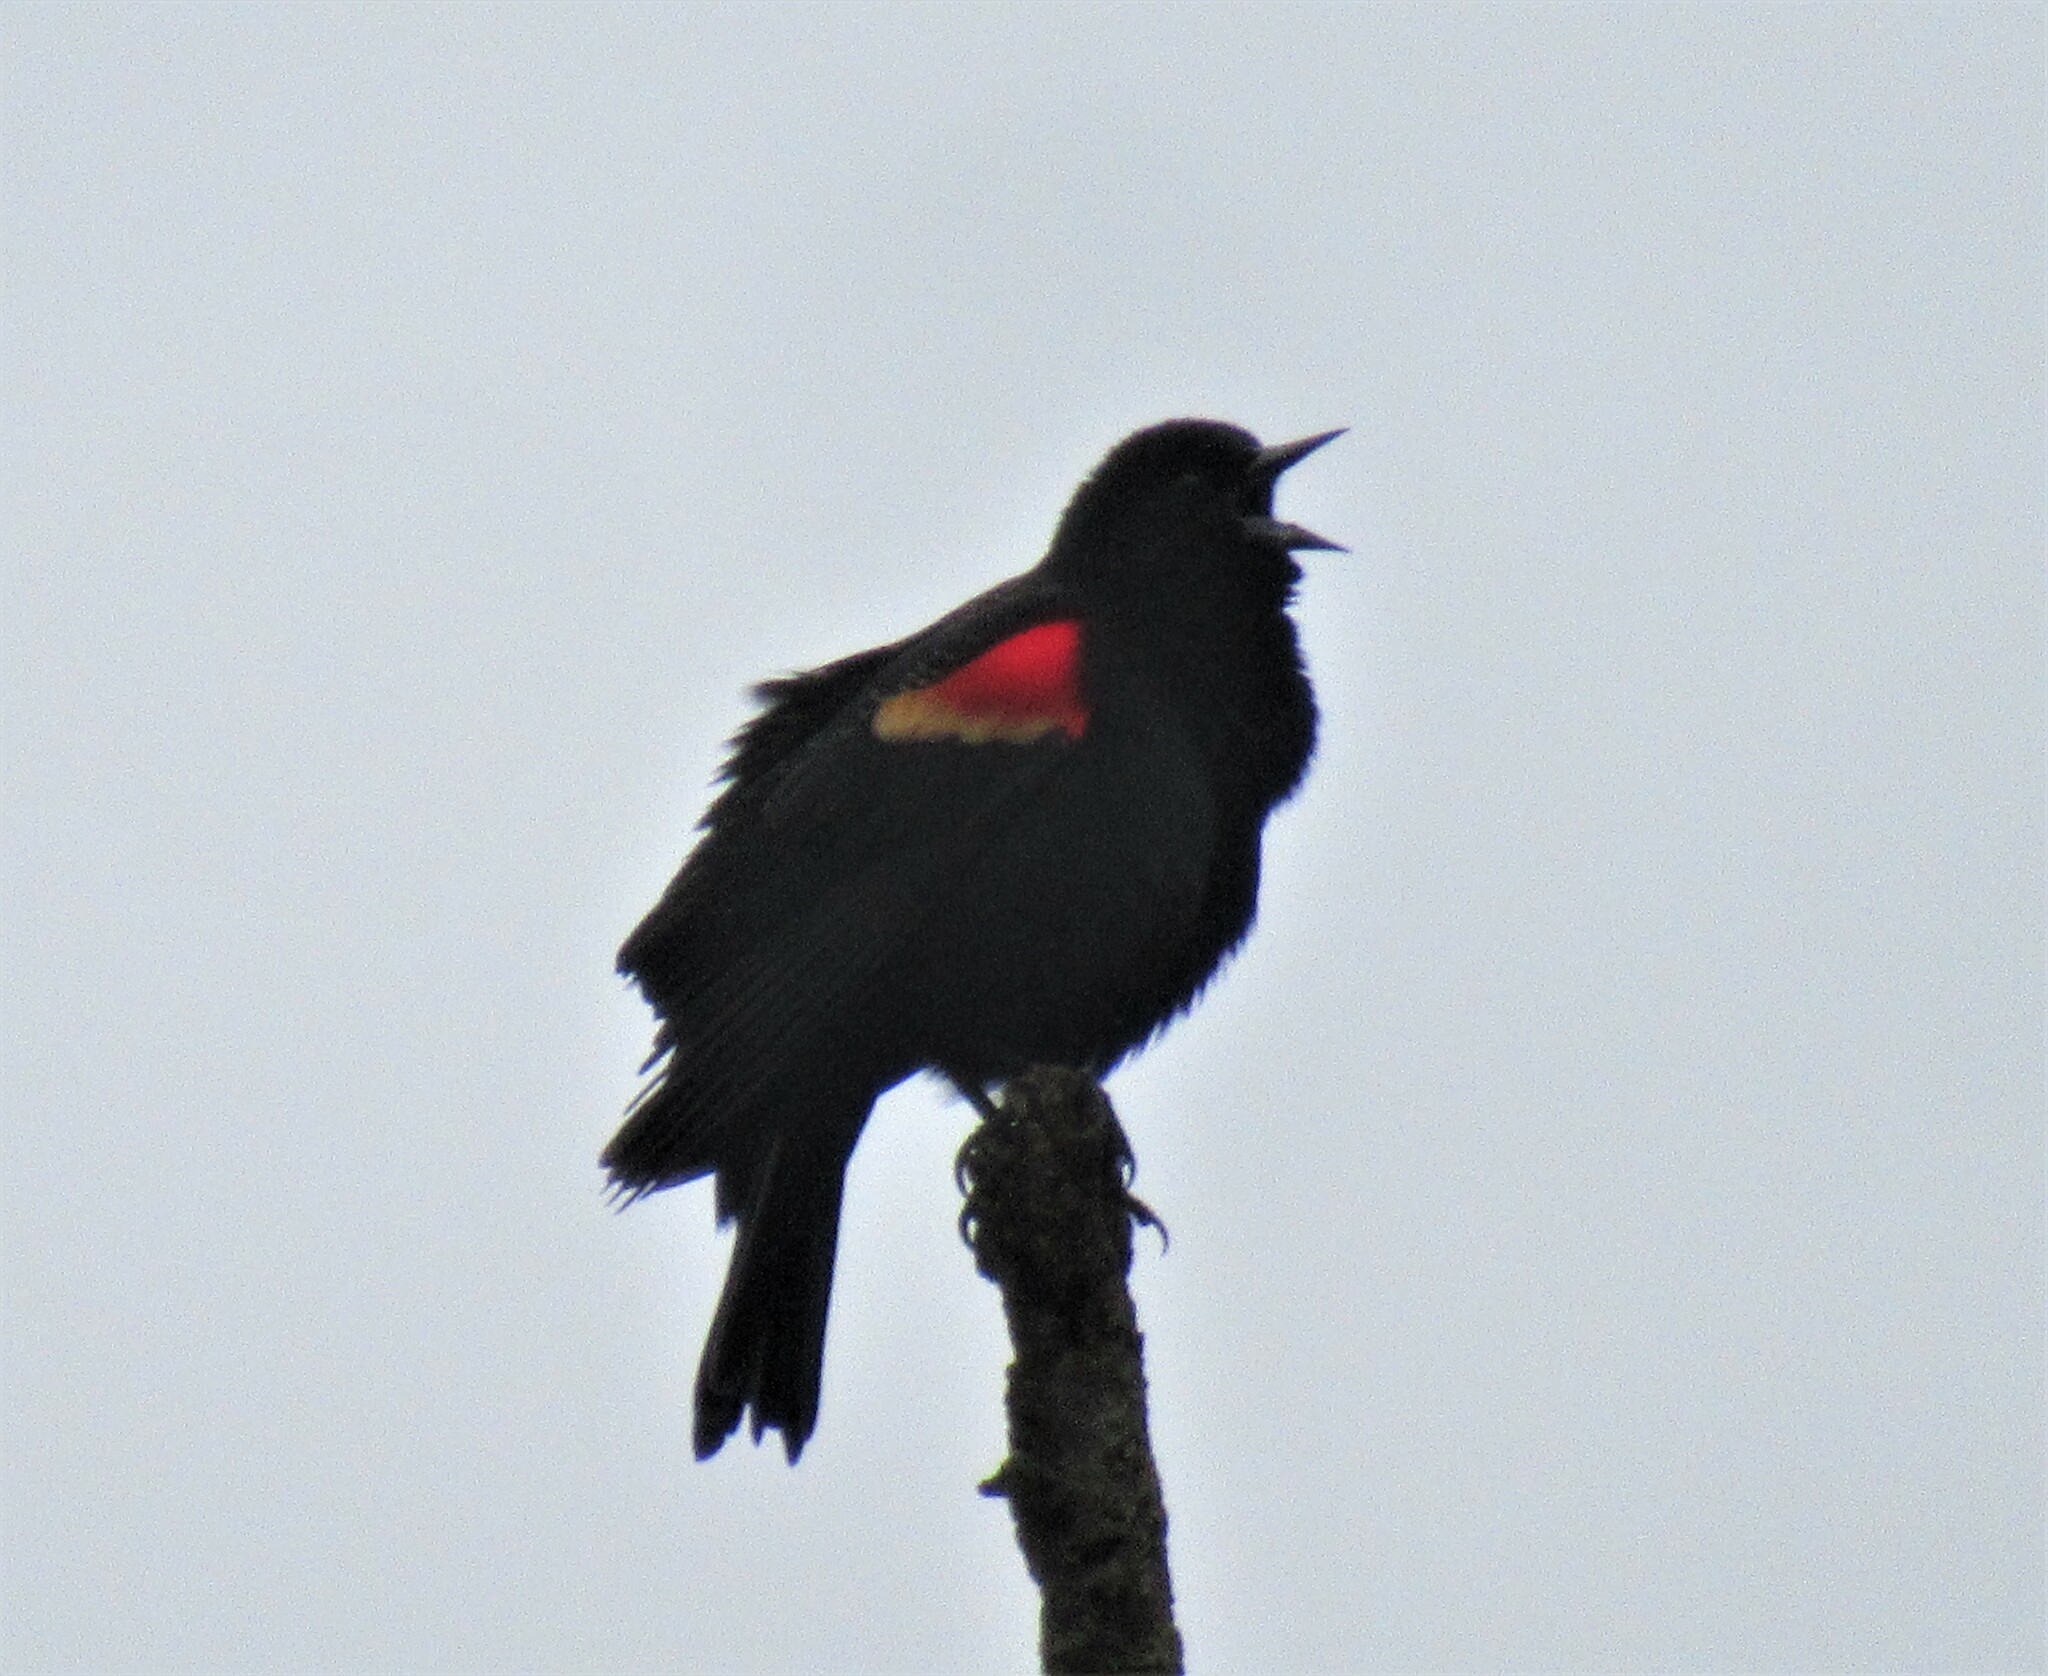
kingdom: Animalia
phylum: Chordata
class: Aves
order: Passeriformes
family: Icteridae
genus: Agelaius
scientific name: Agelaius phoeniceus
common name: Red-winged blackbird
